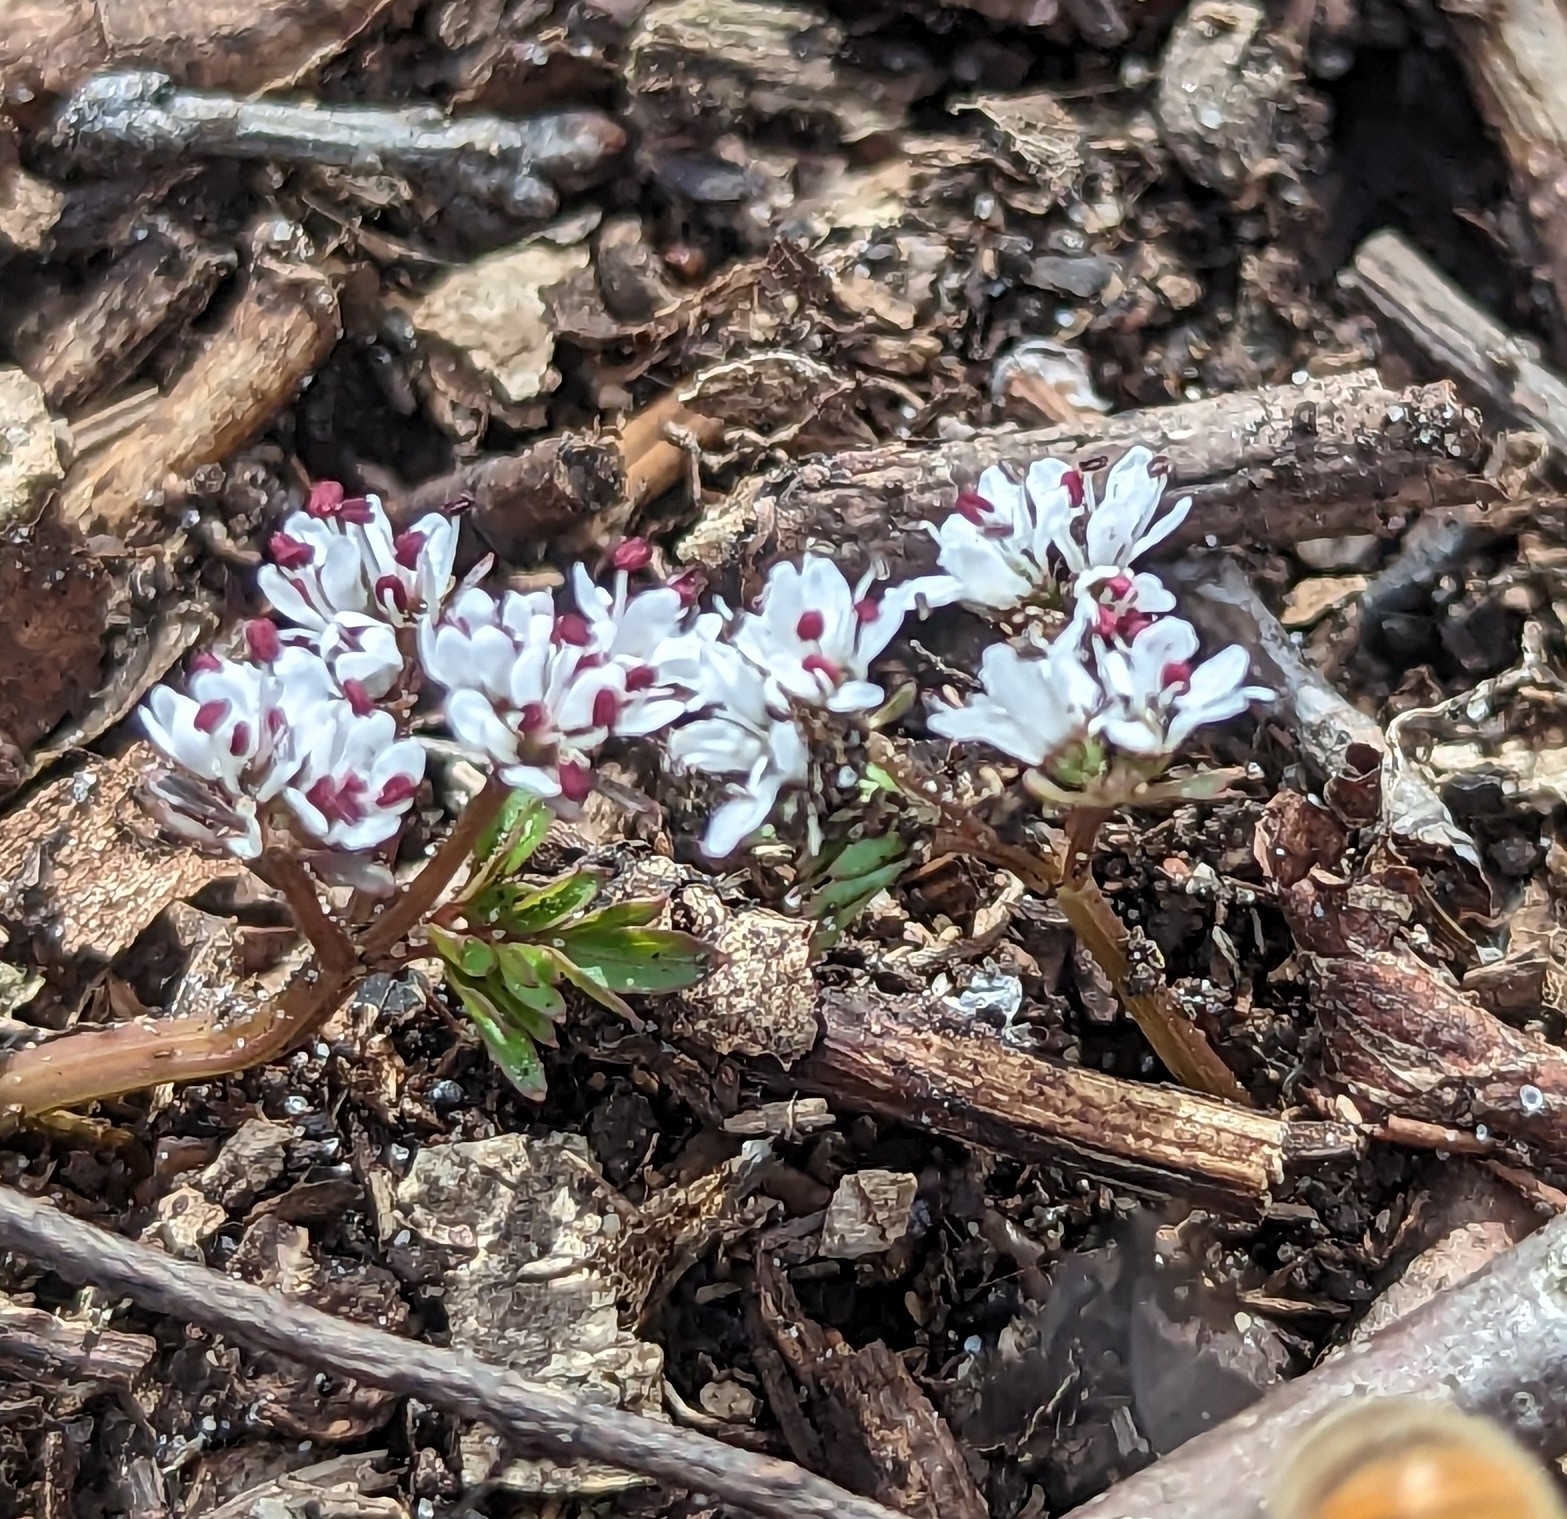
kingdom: Plantae
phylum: Tracheophyta
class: Magnoliopsida
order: Apiales
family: Apiaceae
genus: Erigenia
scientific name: Erigenia bulbosa
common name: Pepper-and-salt
